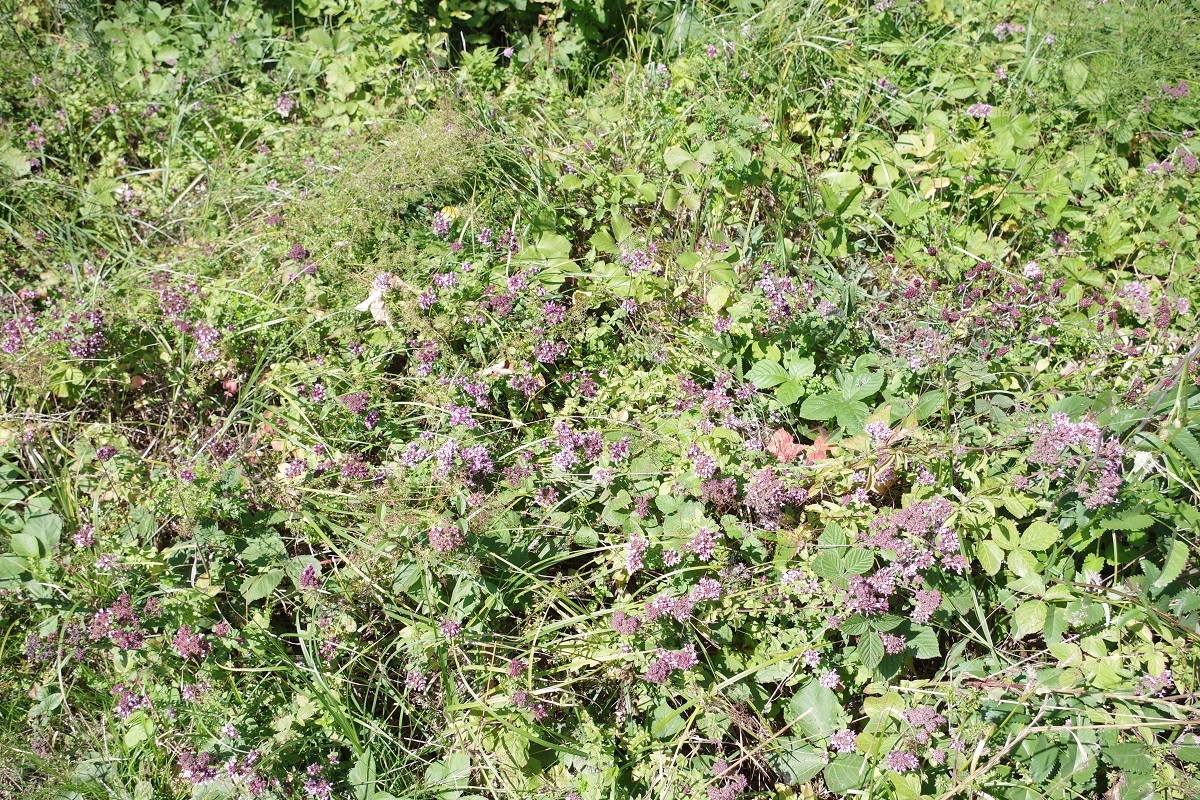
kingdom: Plantae
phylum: Tracheophyta
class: Magnoliopsida
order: Lamiales
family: Lamiaceae
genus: Origanum
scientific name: Origanum vulgare
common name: Wild marjoram
